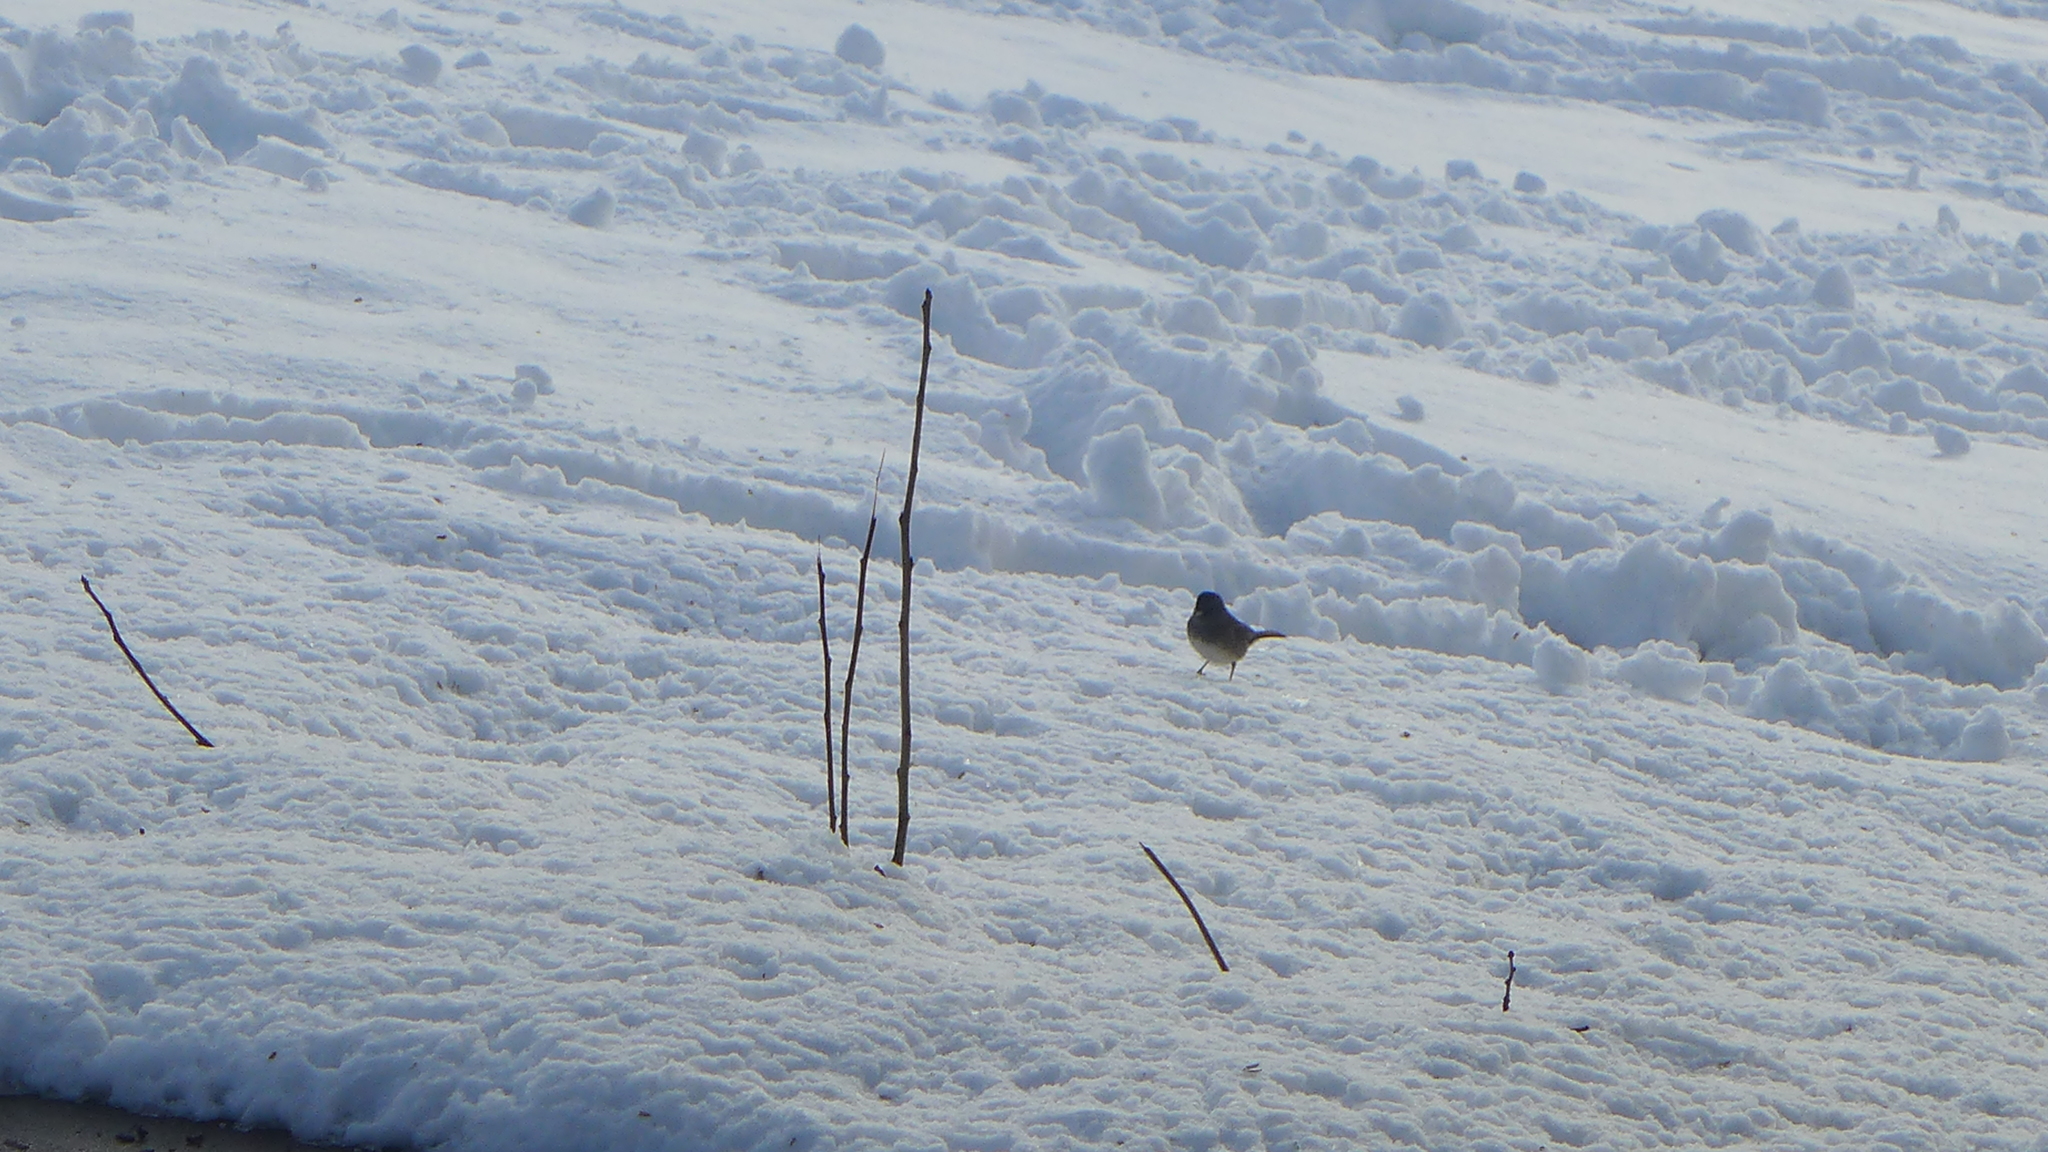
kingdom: Animalia
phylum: Chordata
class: Aves
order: Passeriformes
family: Passerellidae
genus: Junco
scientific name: Junco hyemalis
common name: Dark-eyed junco
